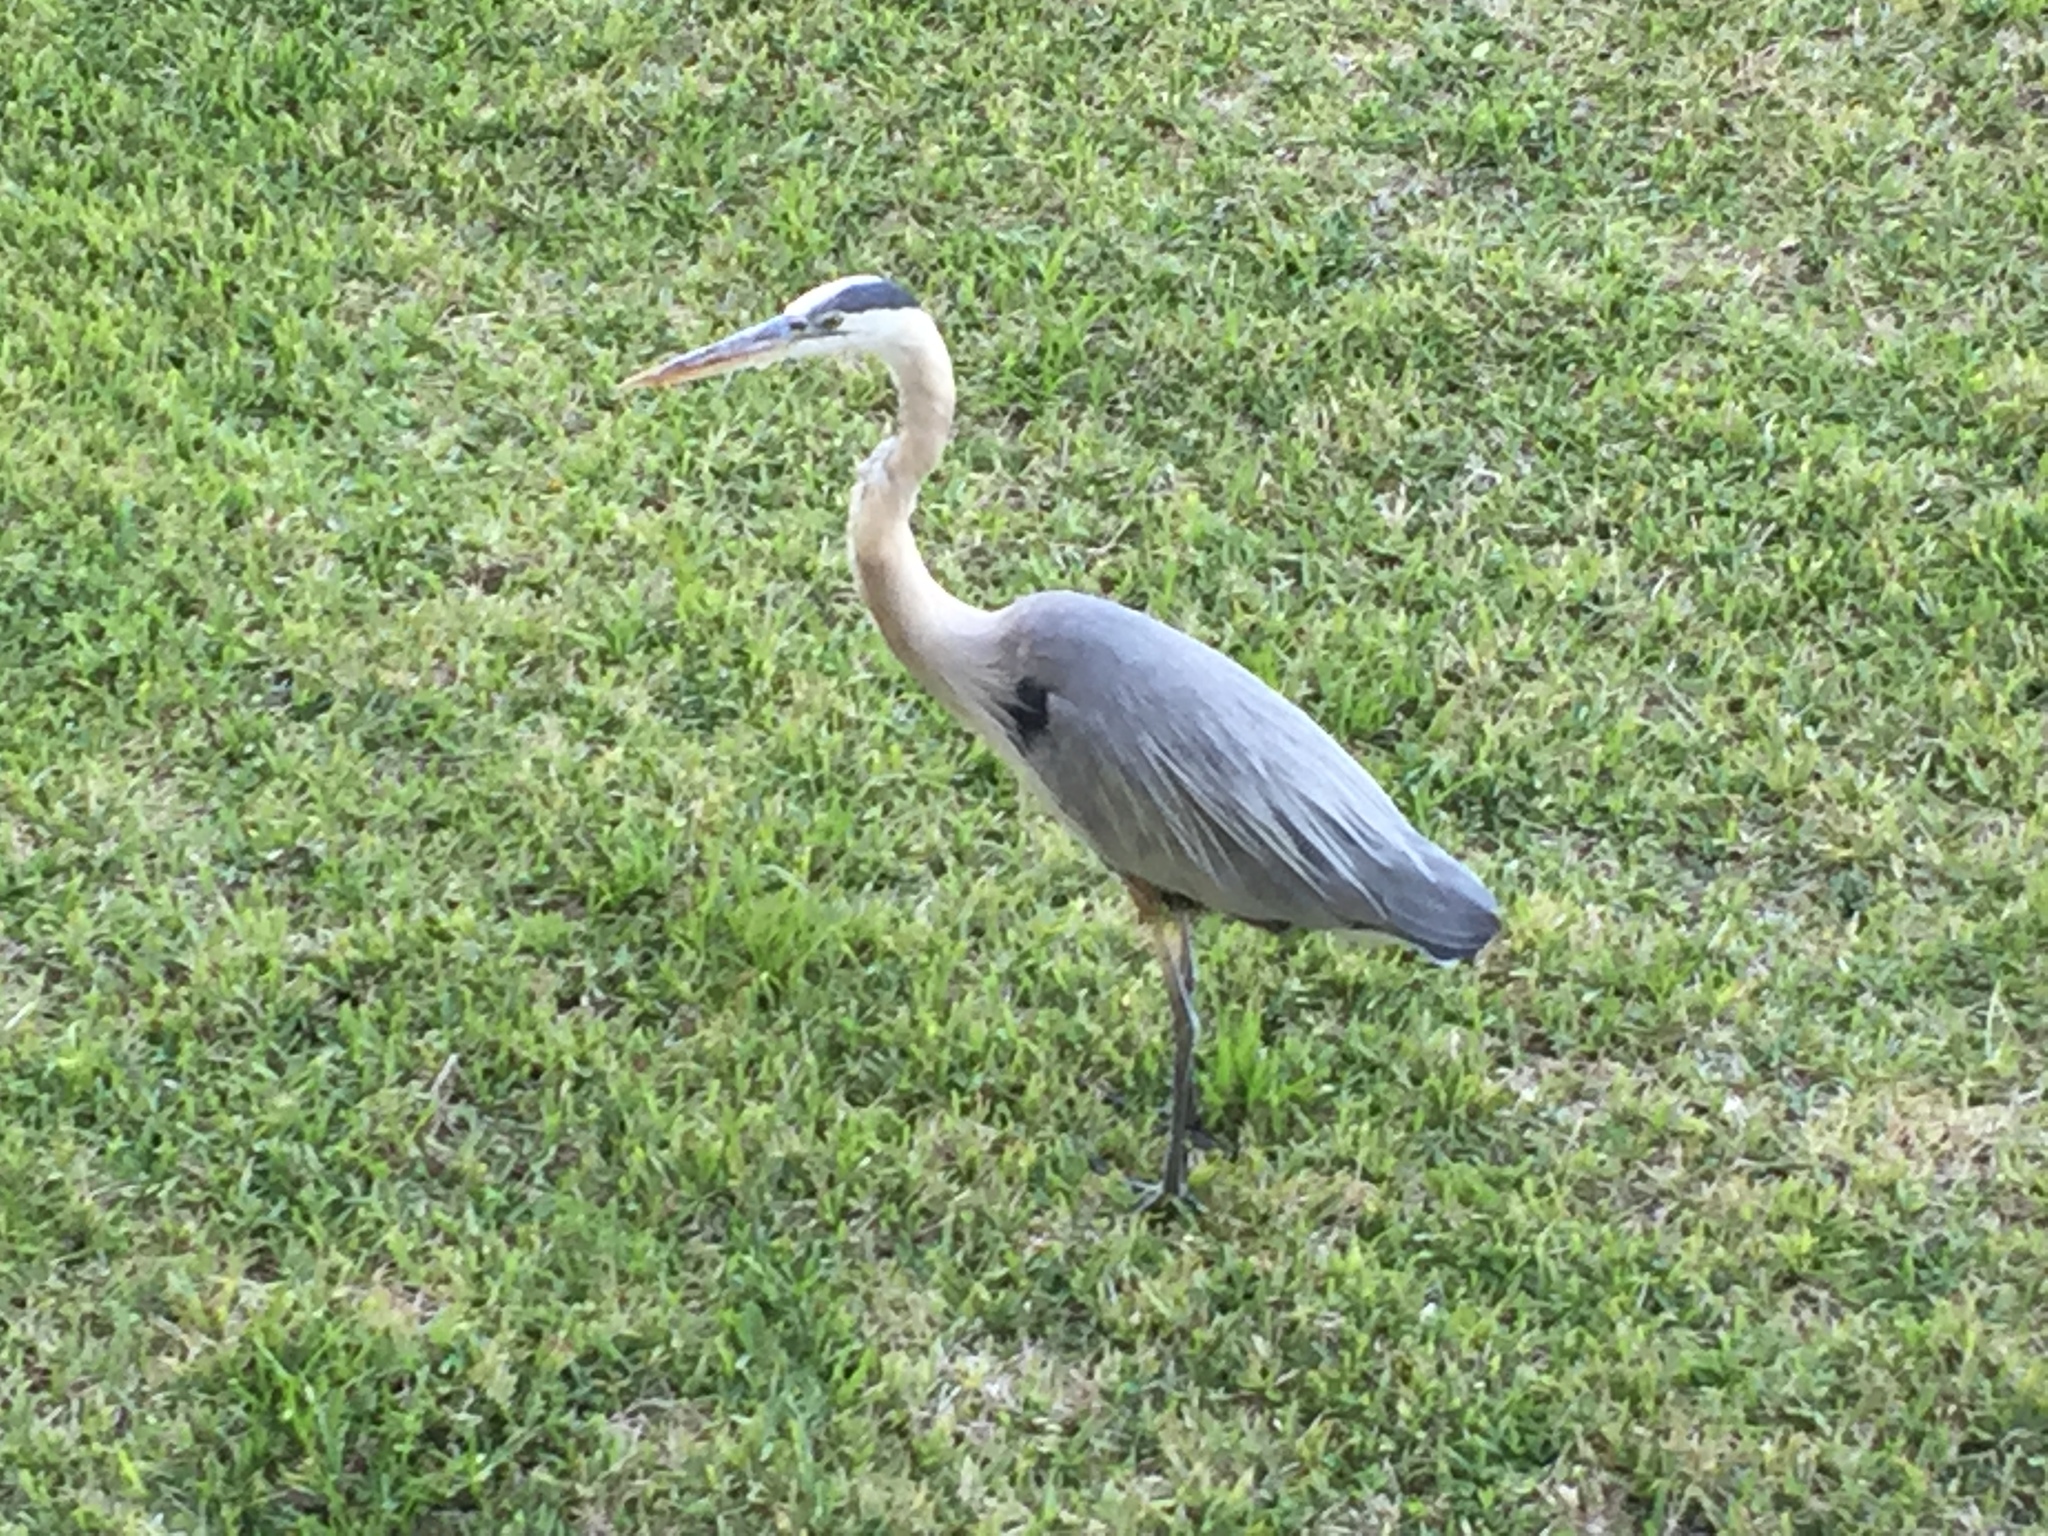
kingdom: Animalia
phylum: Chordata
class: Aves
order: Pelecaniformes
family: Ardeidae
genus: Ardea
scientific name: Ardea herodias
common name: Great blue heron
